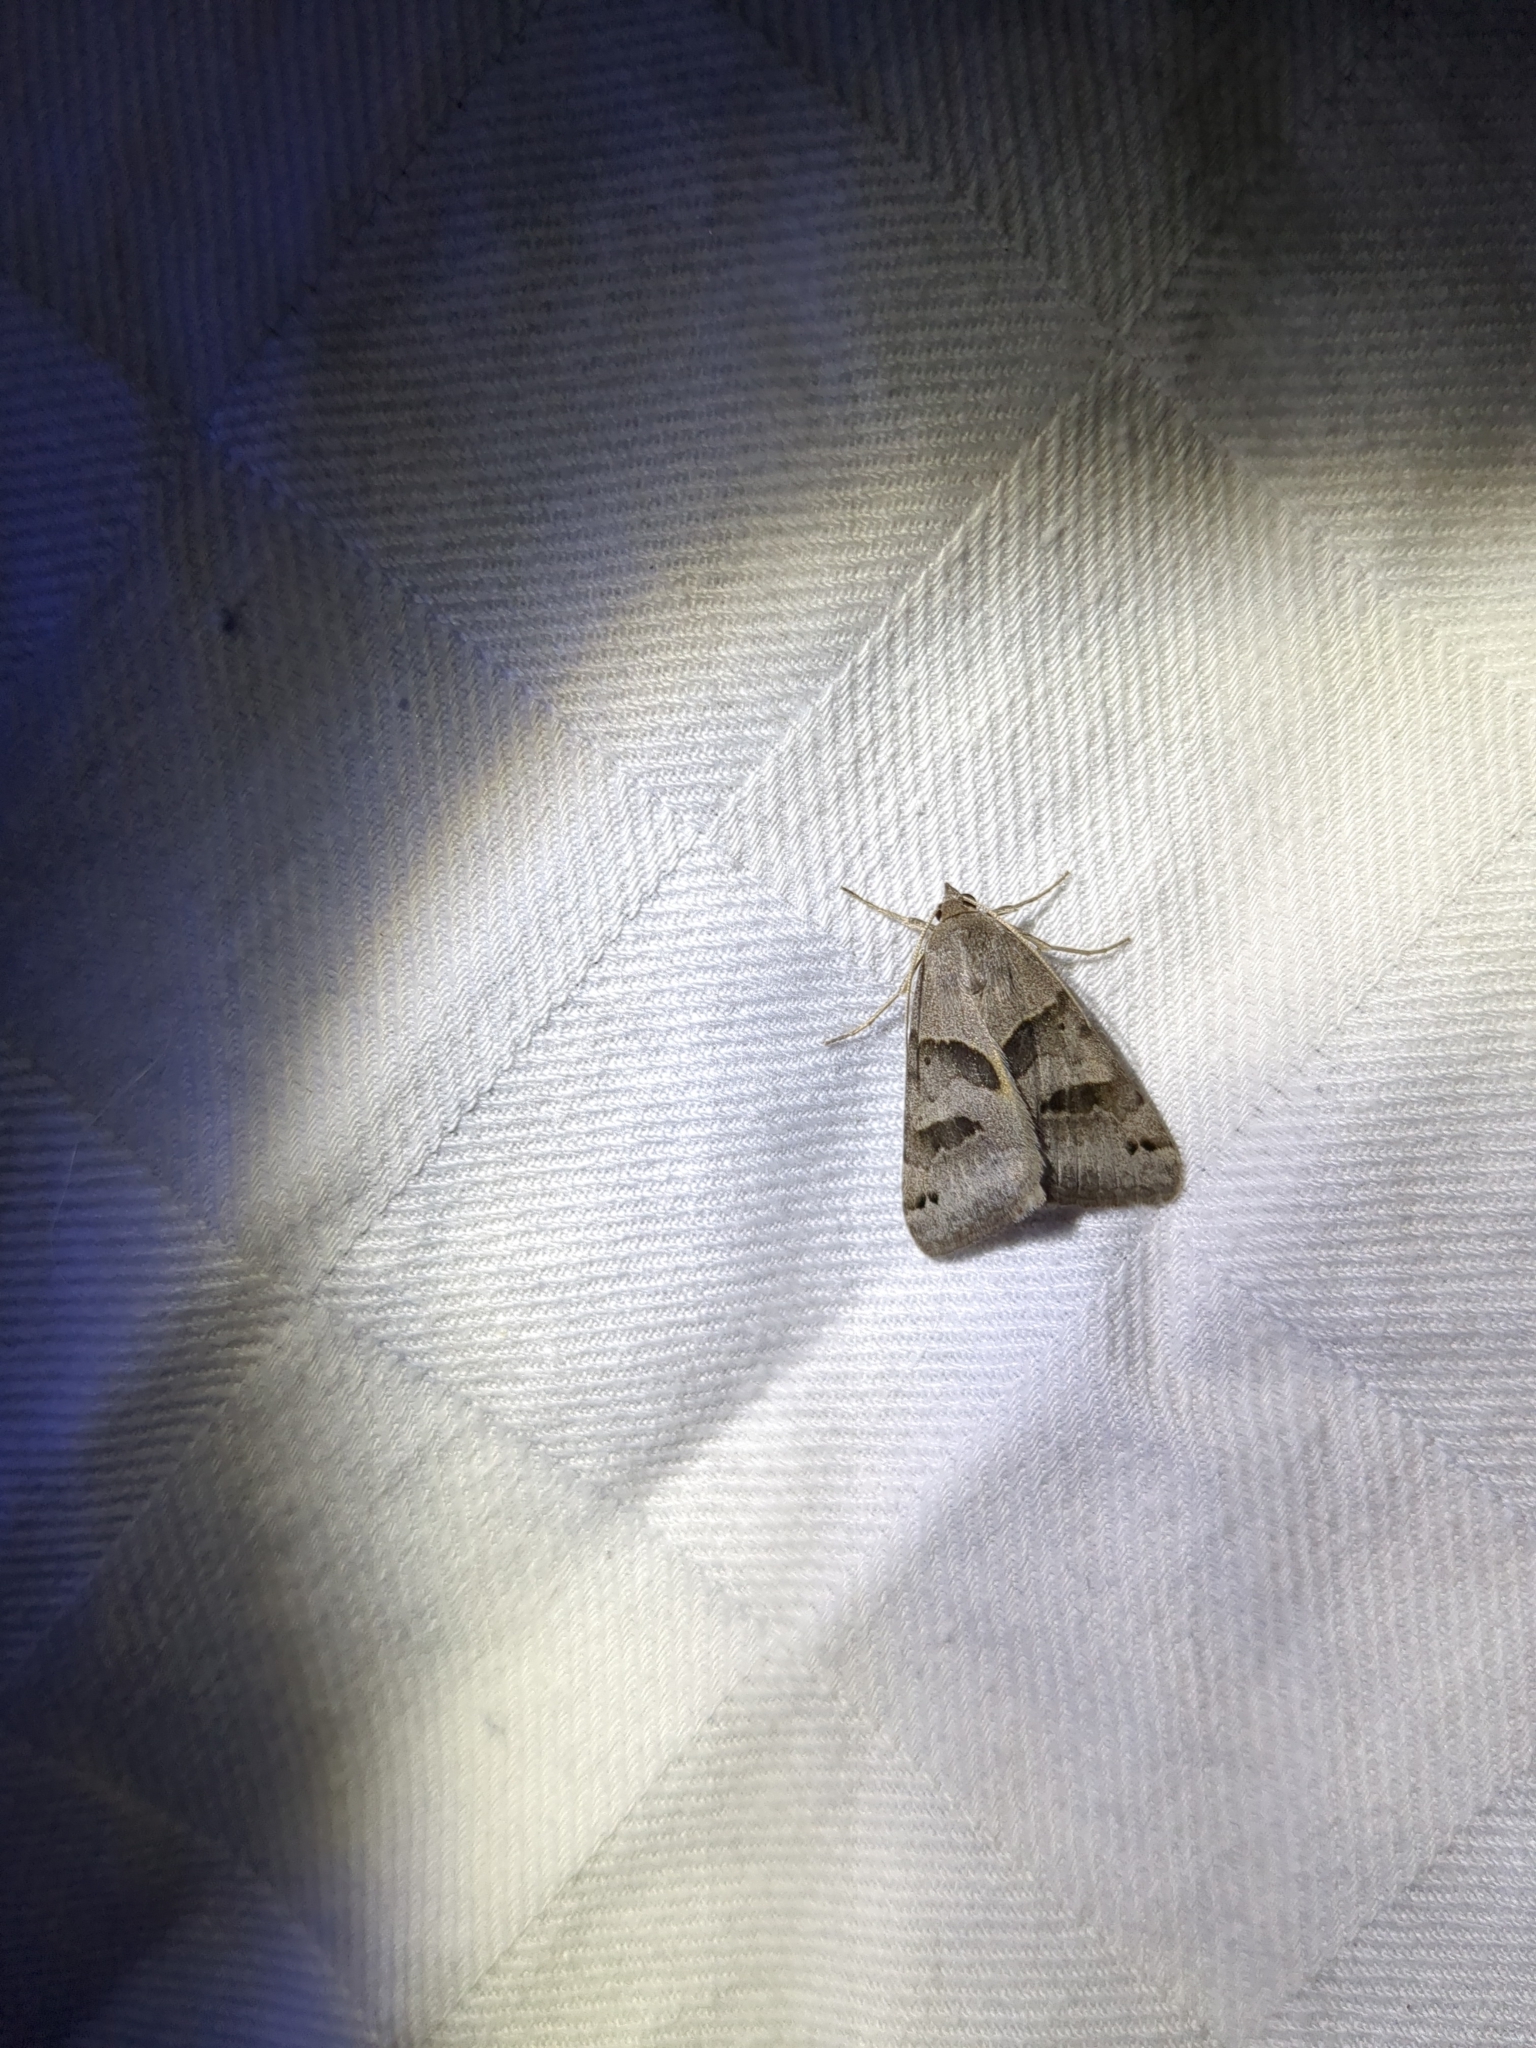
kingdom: Animalia
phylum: Arthropoda
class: Insecta
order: Lepidoptera
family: Erebidae
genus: Caenurgina
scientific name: Caenurgina erechtea
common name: Forage looper moth
